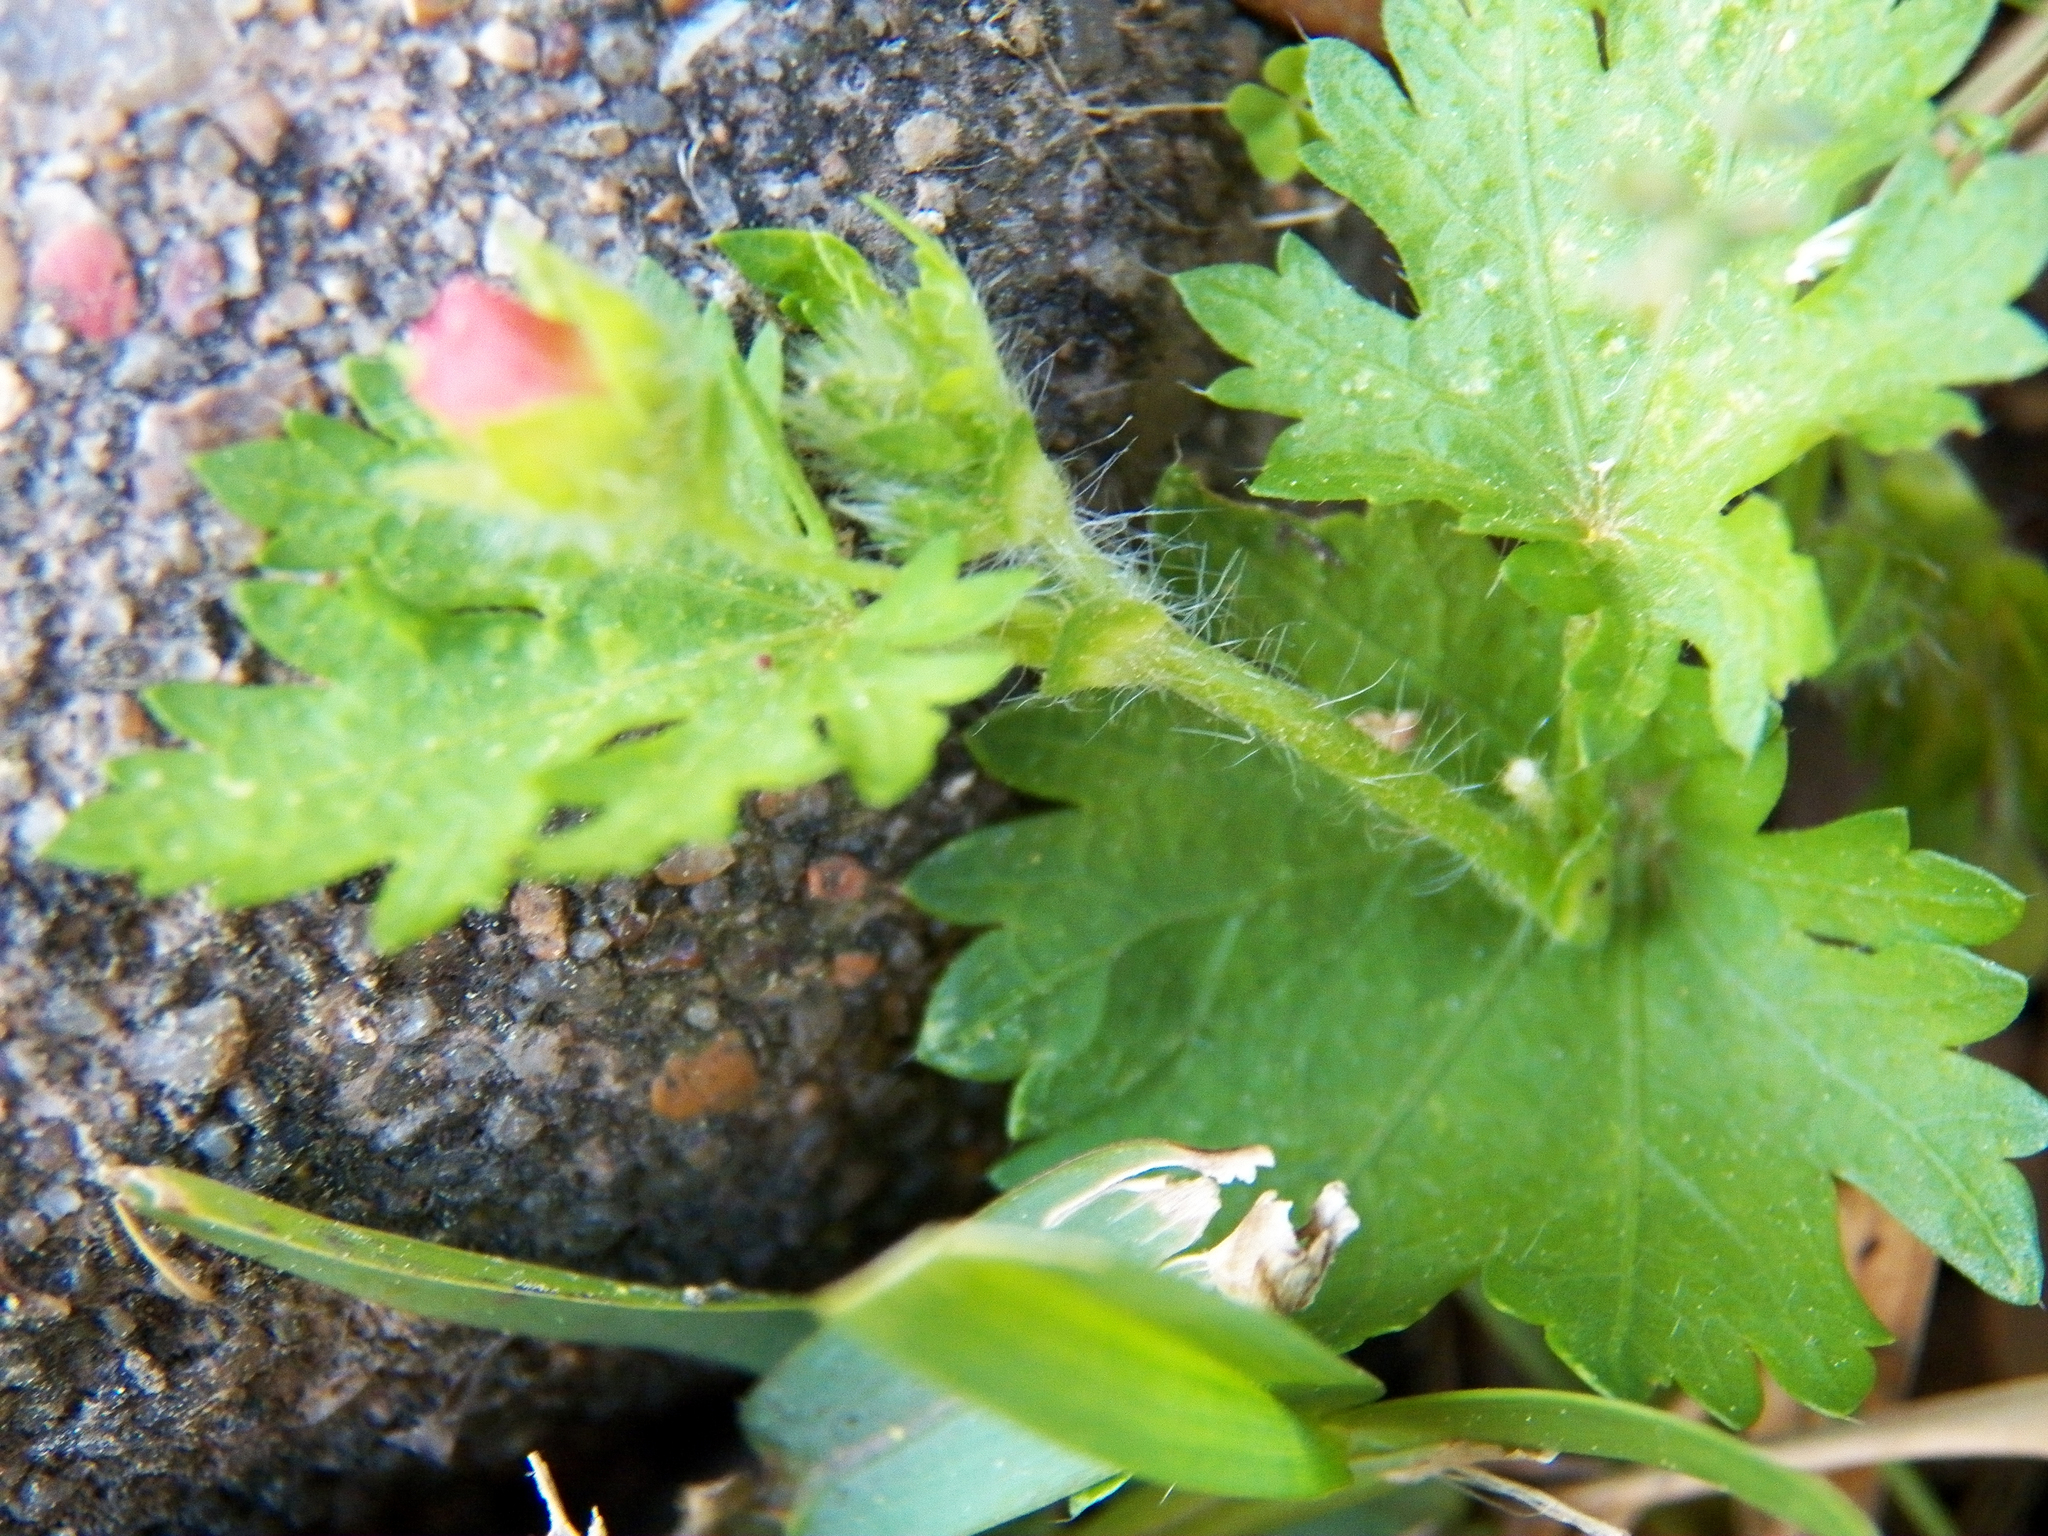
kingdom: Plantae
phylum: Tracheophyta
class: Magnoliopsida
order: Malvales
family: Malvaceae
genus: Modiola
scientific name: Modiola caroliniana
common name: Carolina bristlemallow
